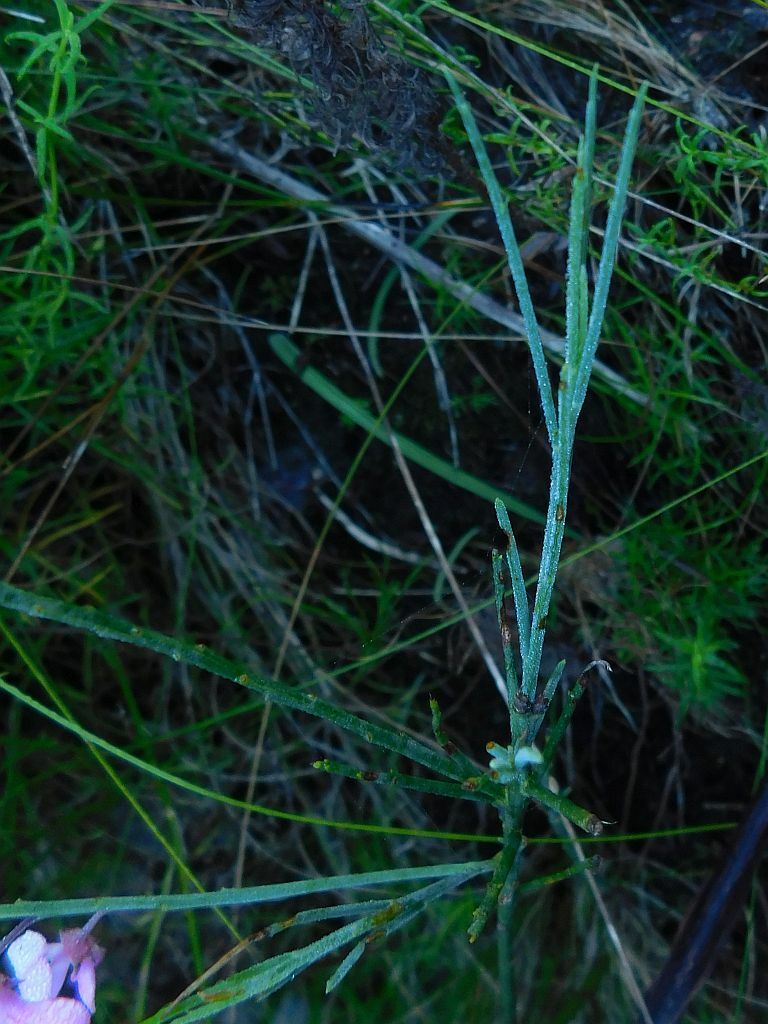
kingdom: Plantae
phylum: Tracheophyta
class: Magnoliopsida
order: Fabales
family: Fabaceae
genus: Indigofera
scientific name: Indigofera filifolia
